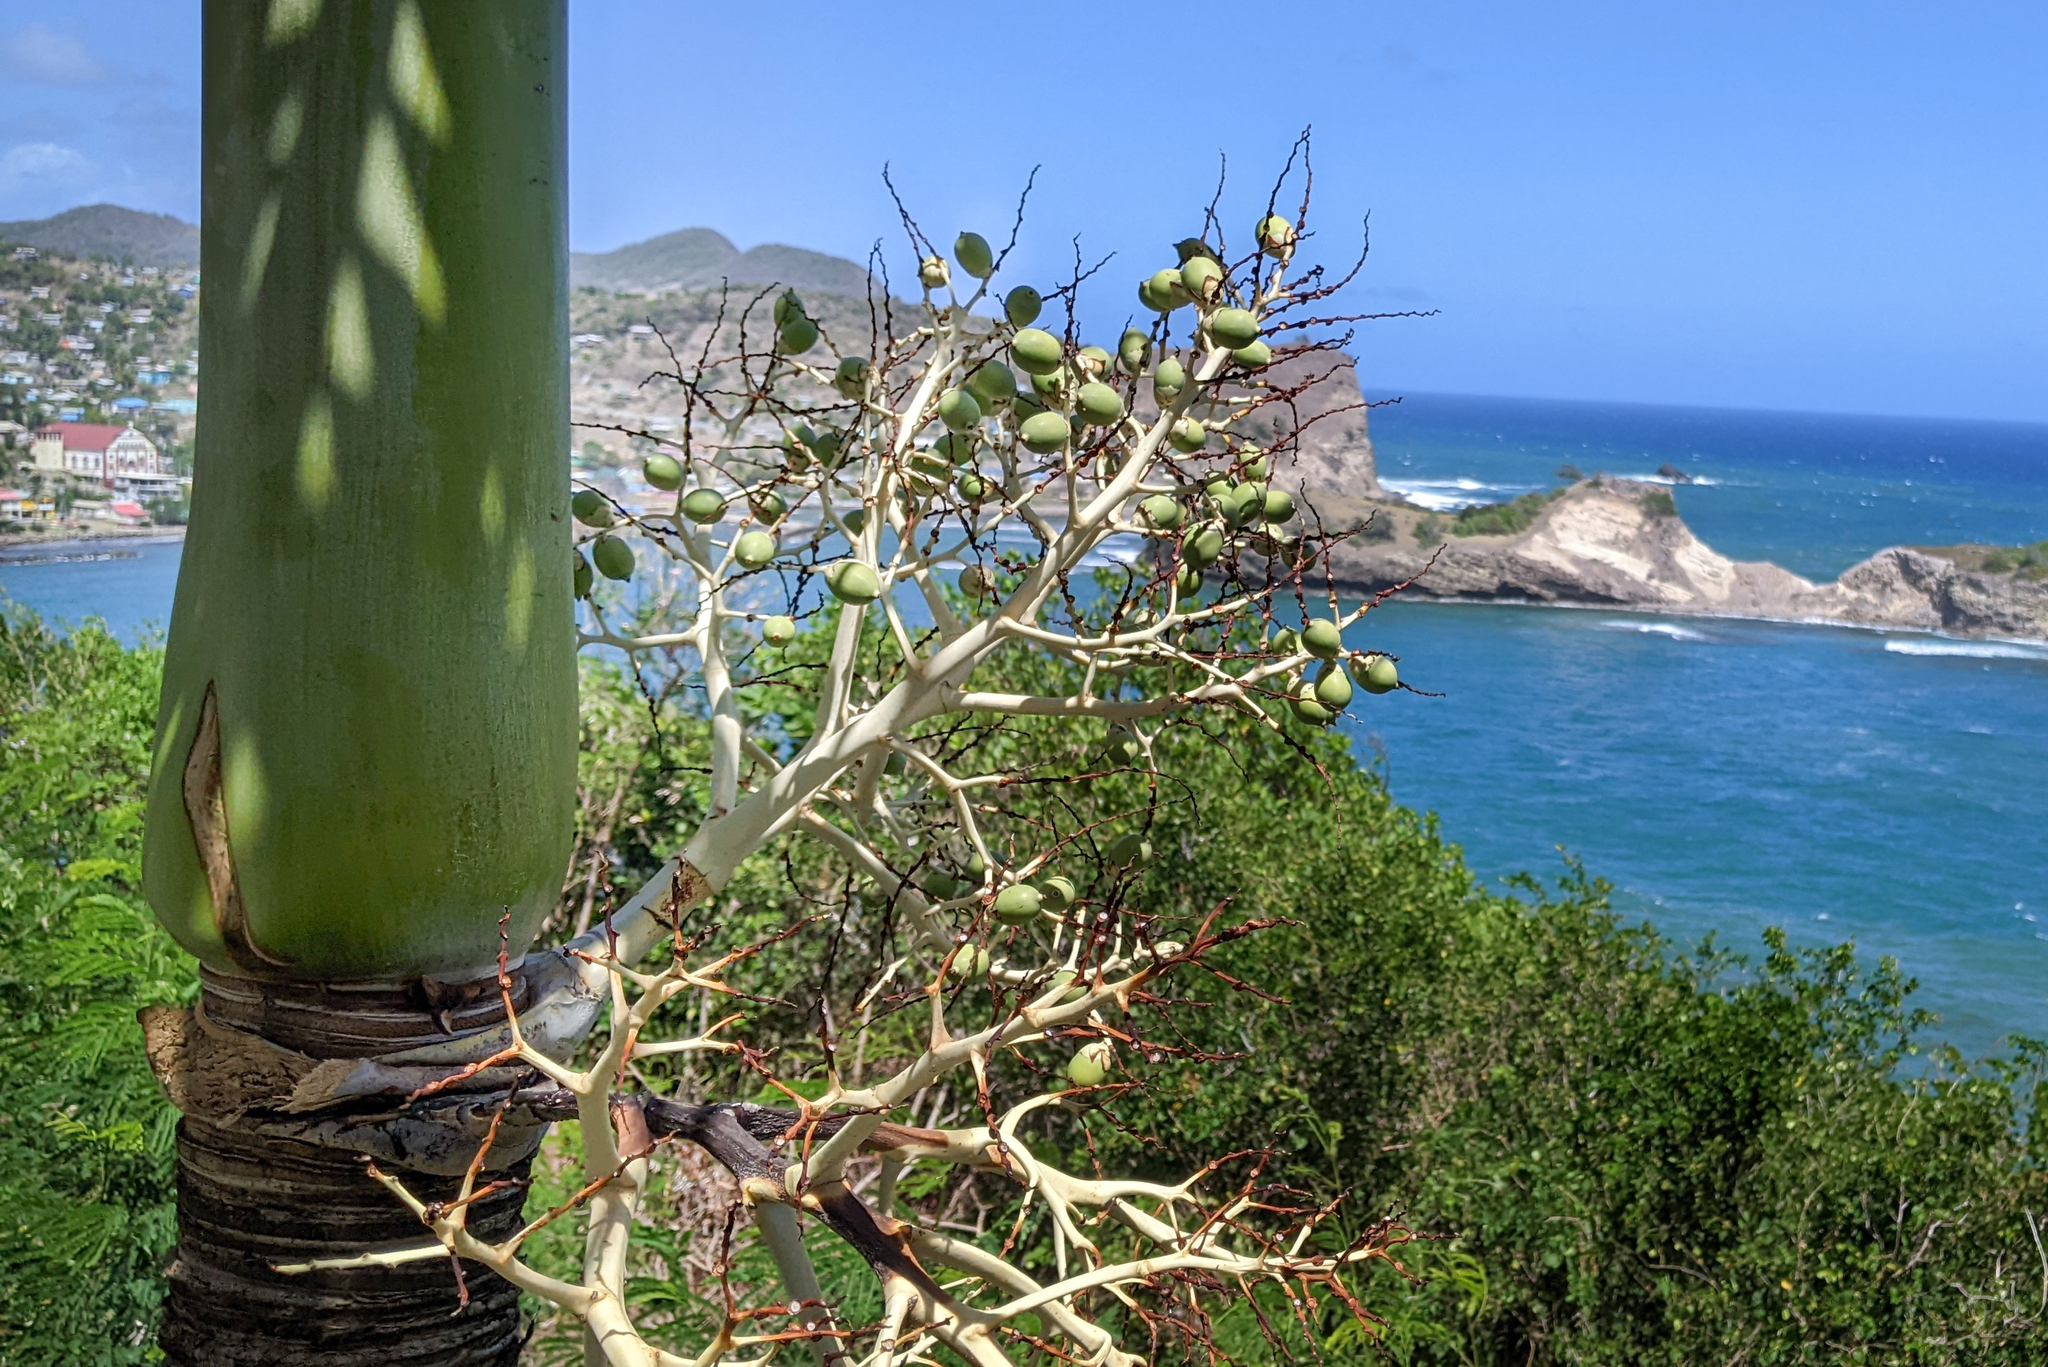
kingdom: Plantae
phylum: Tracheophyta
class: Liliopsida
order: Arecales
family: Arecaceae
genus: Adonidia
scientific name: Adonidia merrillii
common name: Manila palm
